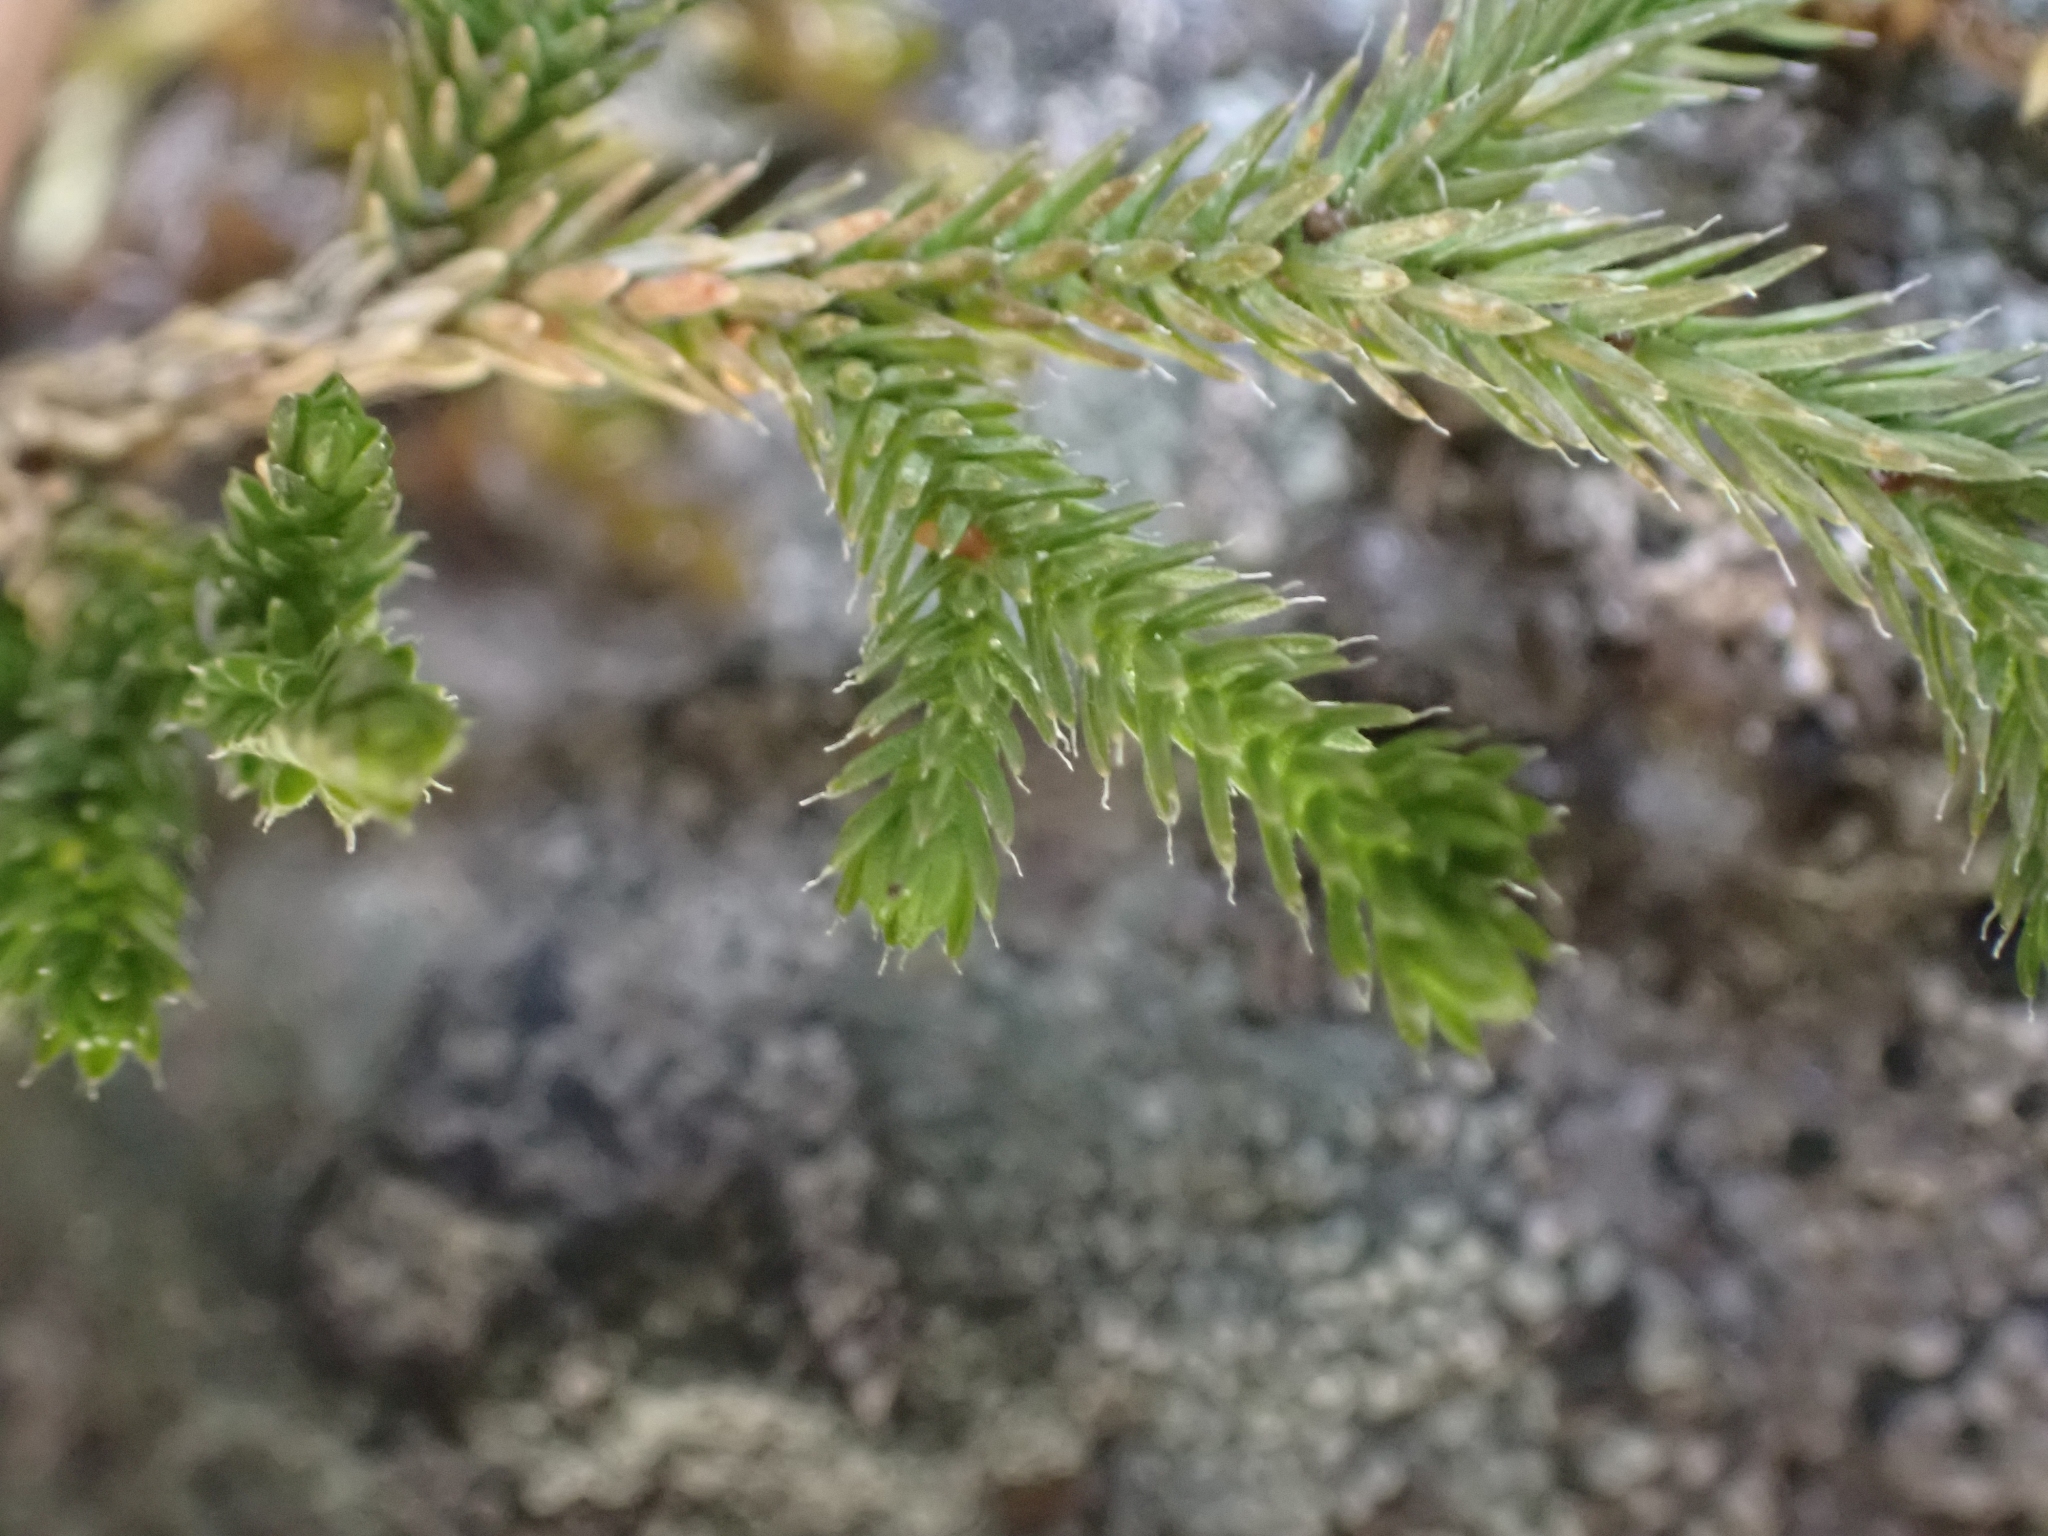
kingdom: Plantae
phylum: Tracheophyta
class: Lycopodiopsida
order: Selaginellales
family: Selaginellaceae
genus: Selaginella
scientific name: Selaginella wallacei
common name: Wallace's selaginella
